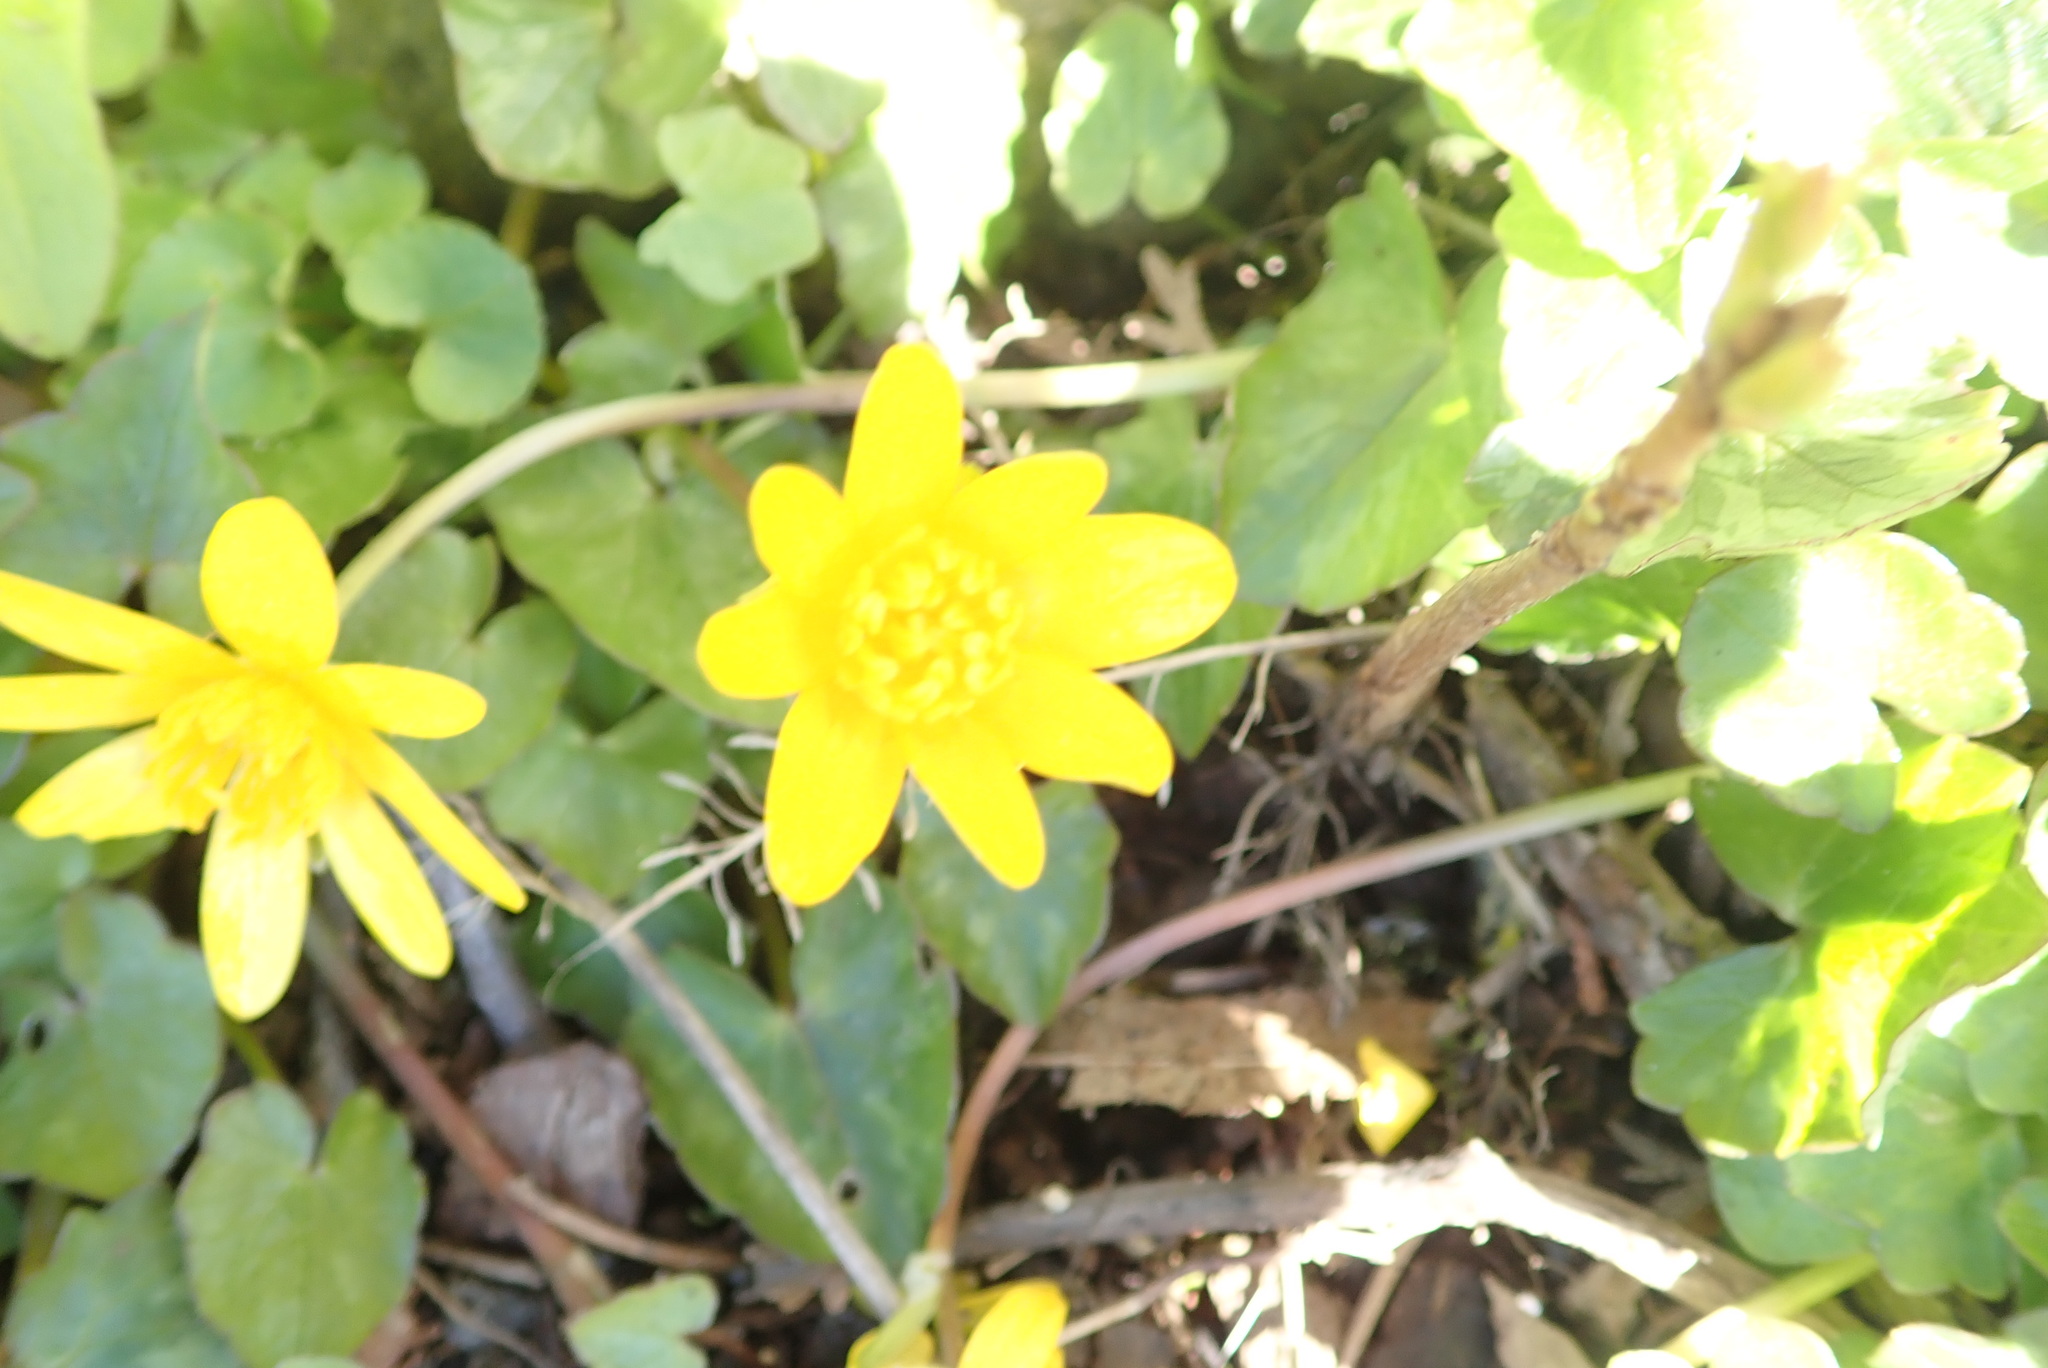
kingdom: Plantae
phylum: Tracheophyta
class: Magnoliopsida
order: Ranunculales
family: Ranunculaceae
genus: Ficaria
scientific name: Ficaria verna
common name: Lesser celandine
